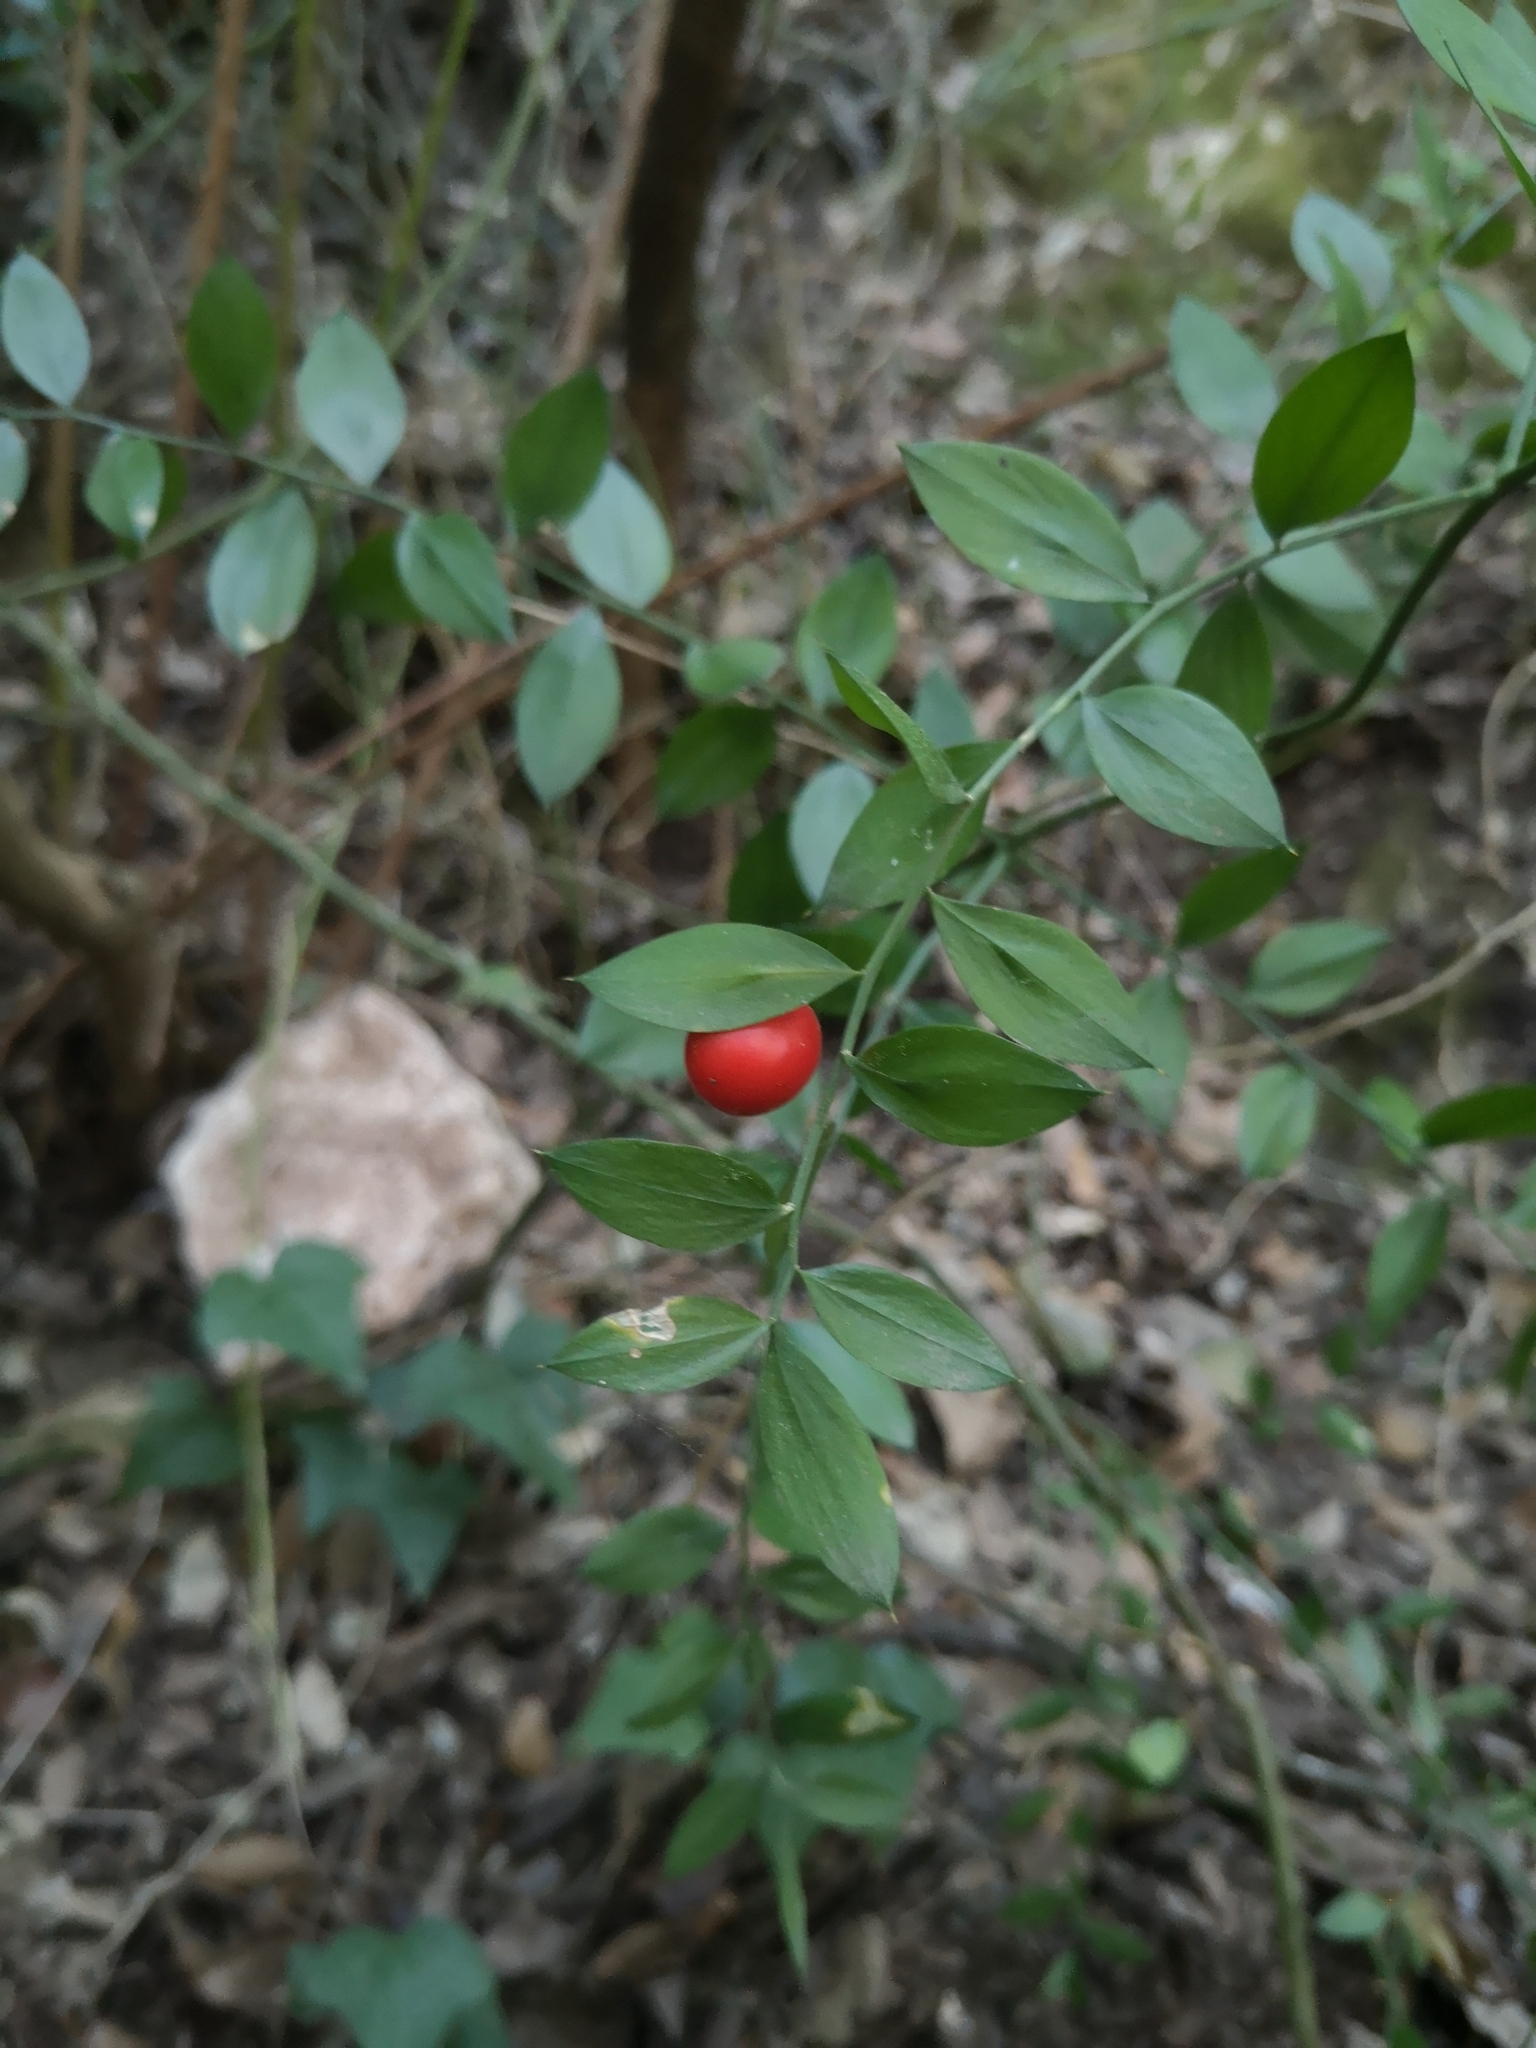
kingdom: Plantae
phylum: Tracheophyta
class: Liliopsida
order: Asparagales
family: Asparagaceae
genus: Ruscus
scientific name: Ruscus aculeatus
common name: Butcher's-broom
